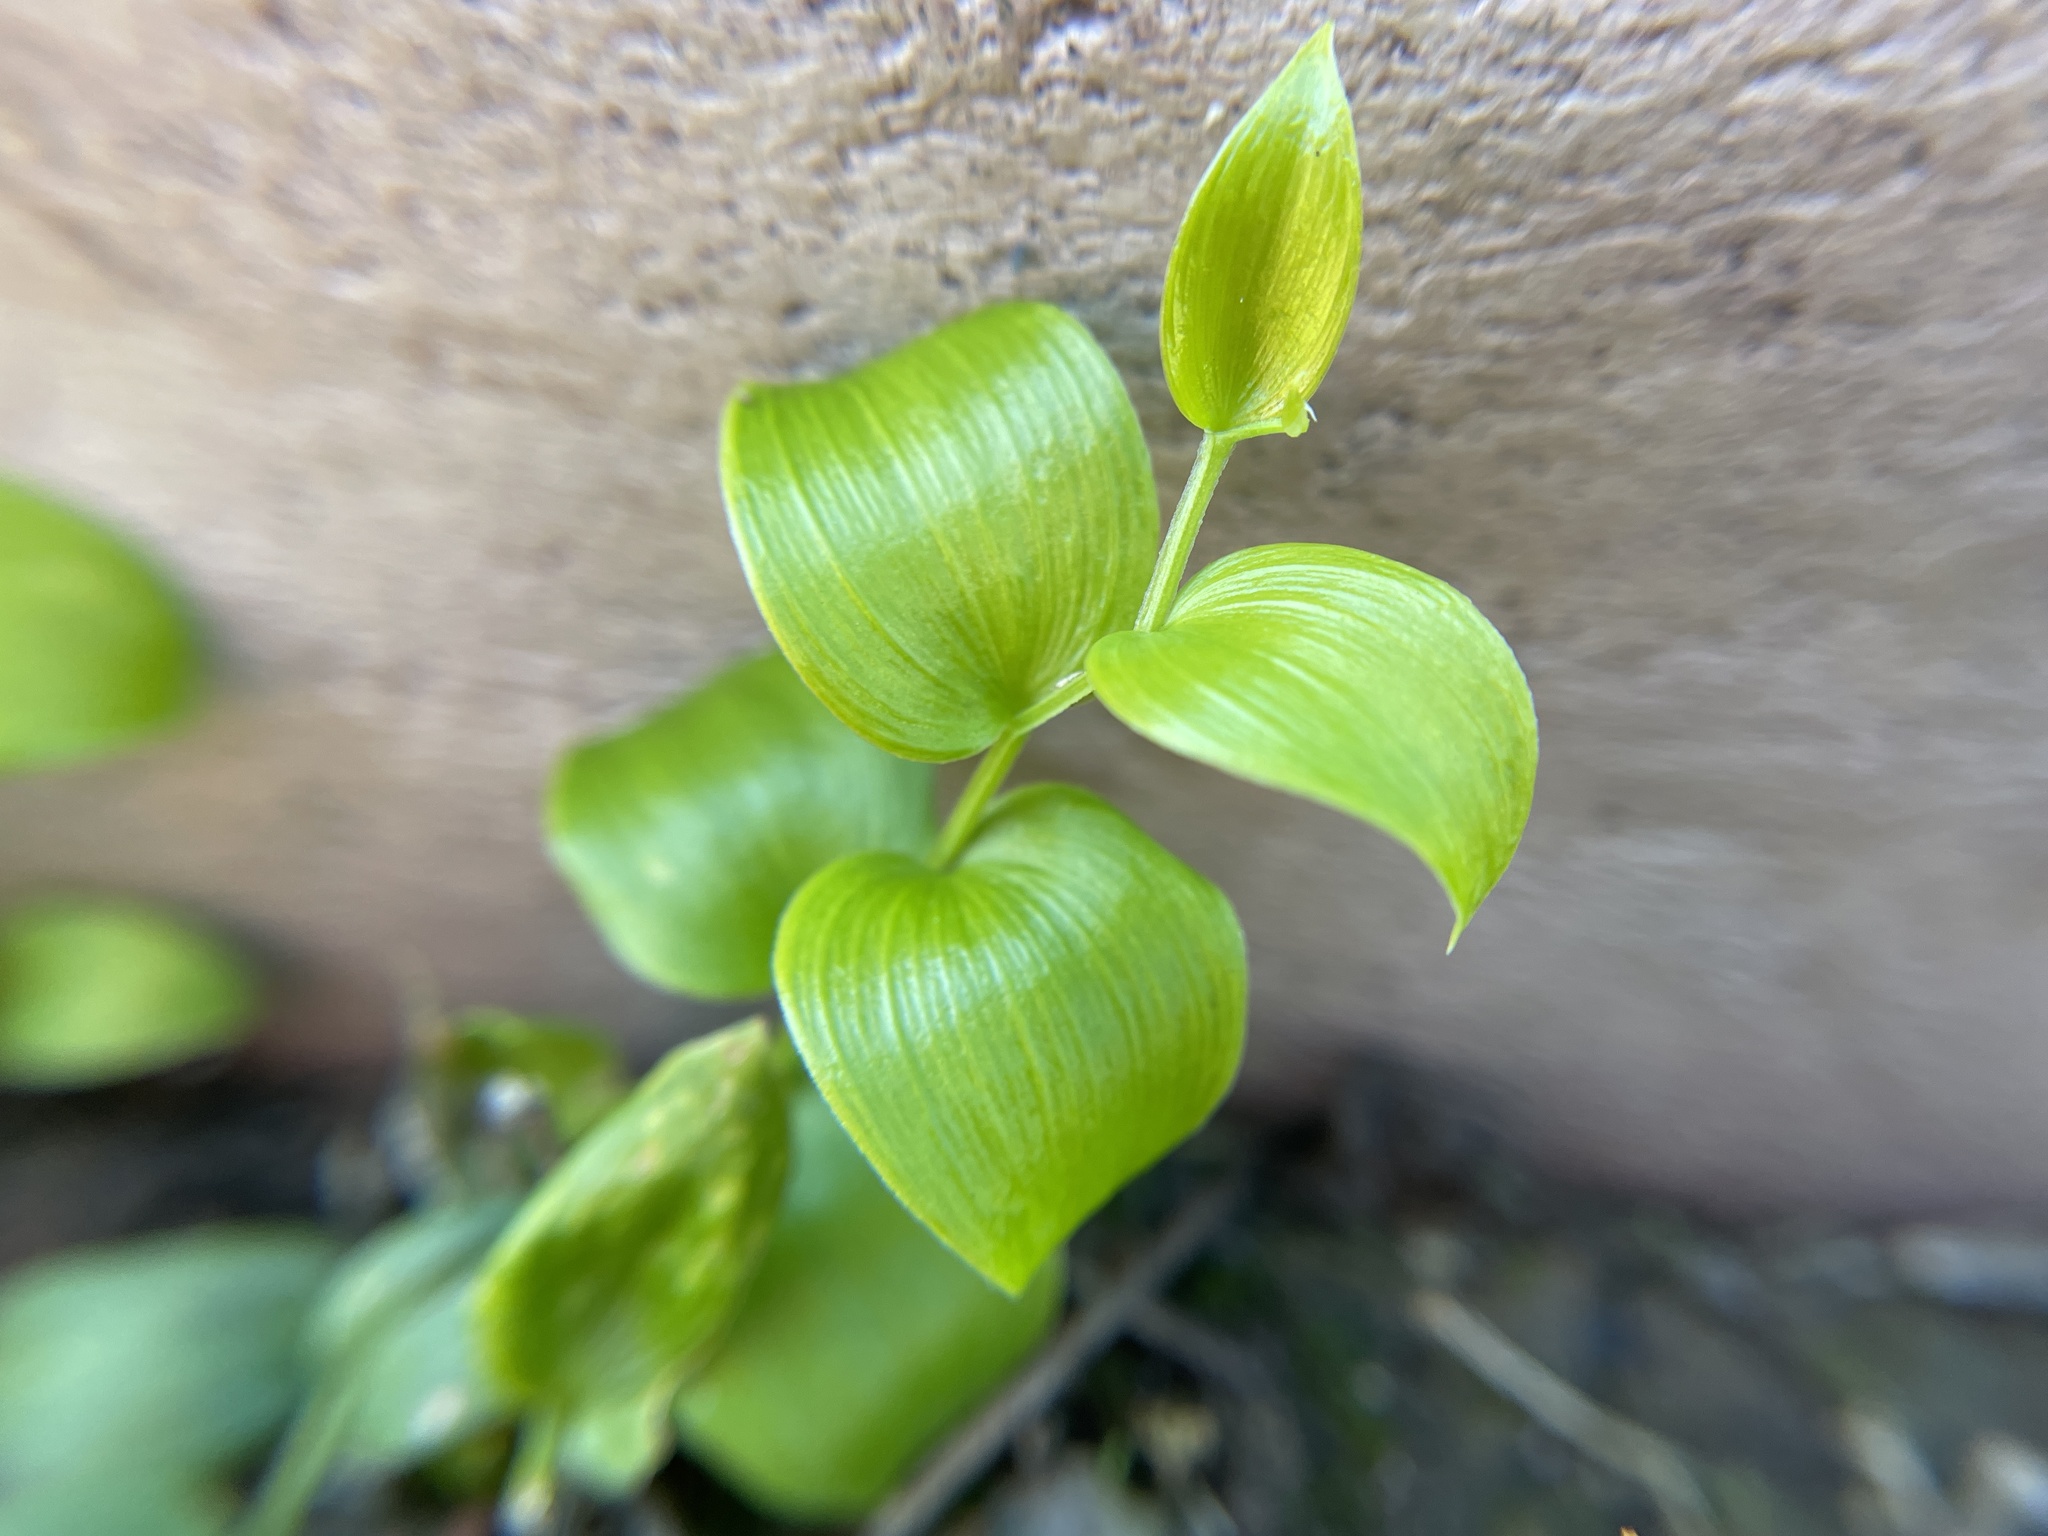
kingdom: Plantae
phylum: Tracheophyta
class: Liliopsida
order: Asparagales
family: Asparagaceae
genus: Asparagus
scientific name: Asparagus asparagoides
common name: African asparagus fern
